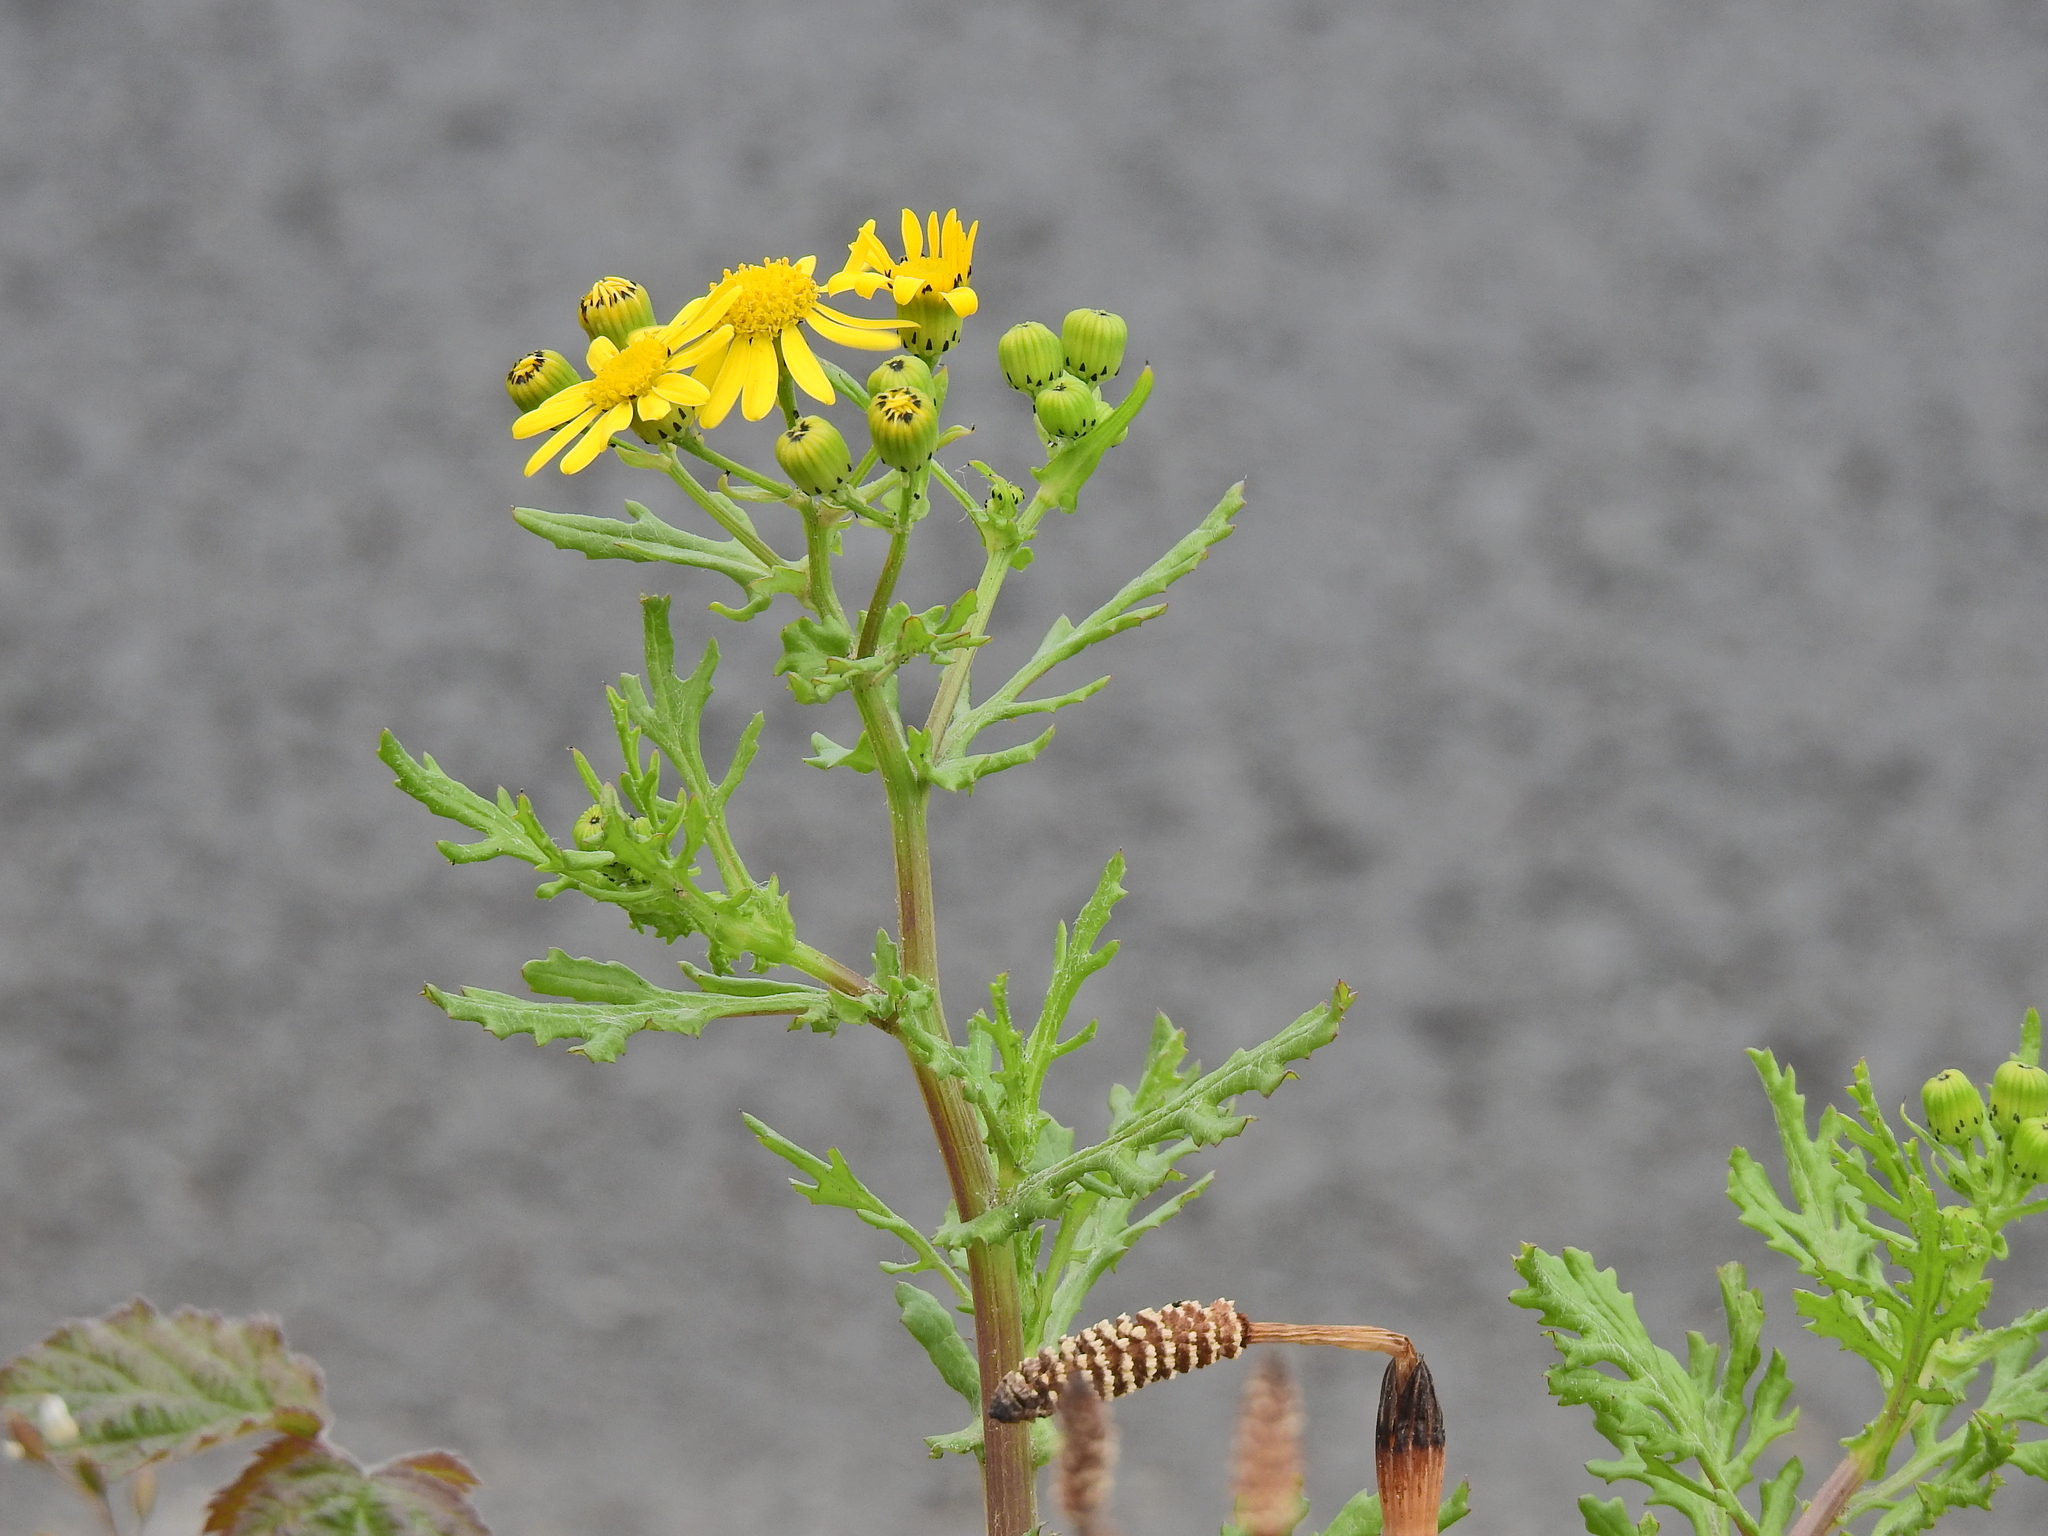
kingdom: Plantae
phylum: Tracheophyta
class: Magnoliopsida
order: Asterales
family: Asteraceae
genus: Senecio
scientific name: Senecio squalidus
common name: Oxford ragwort
